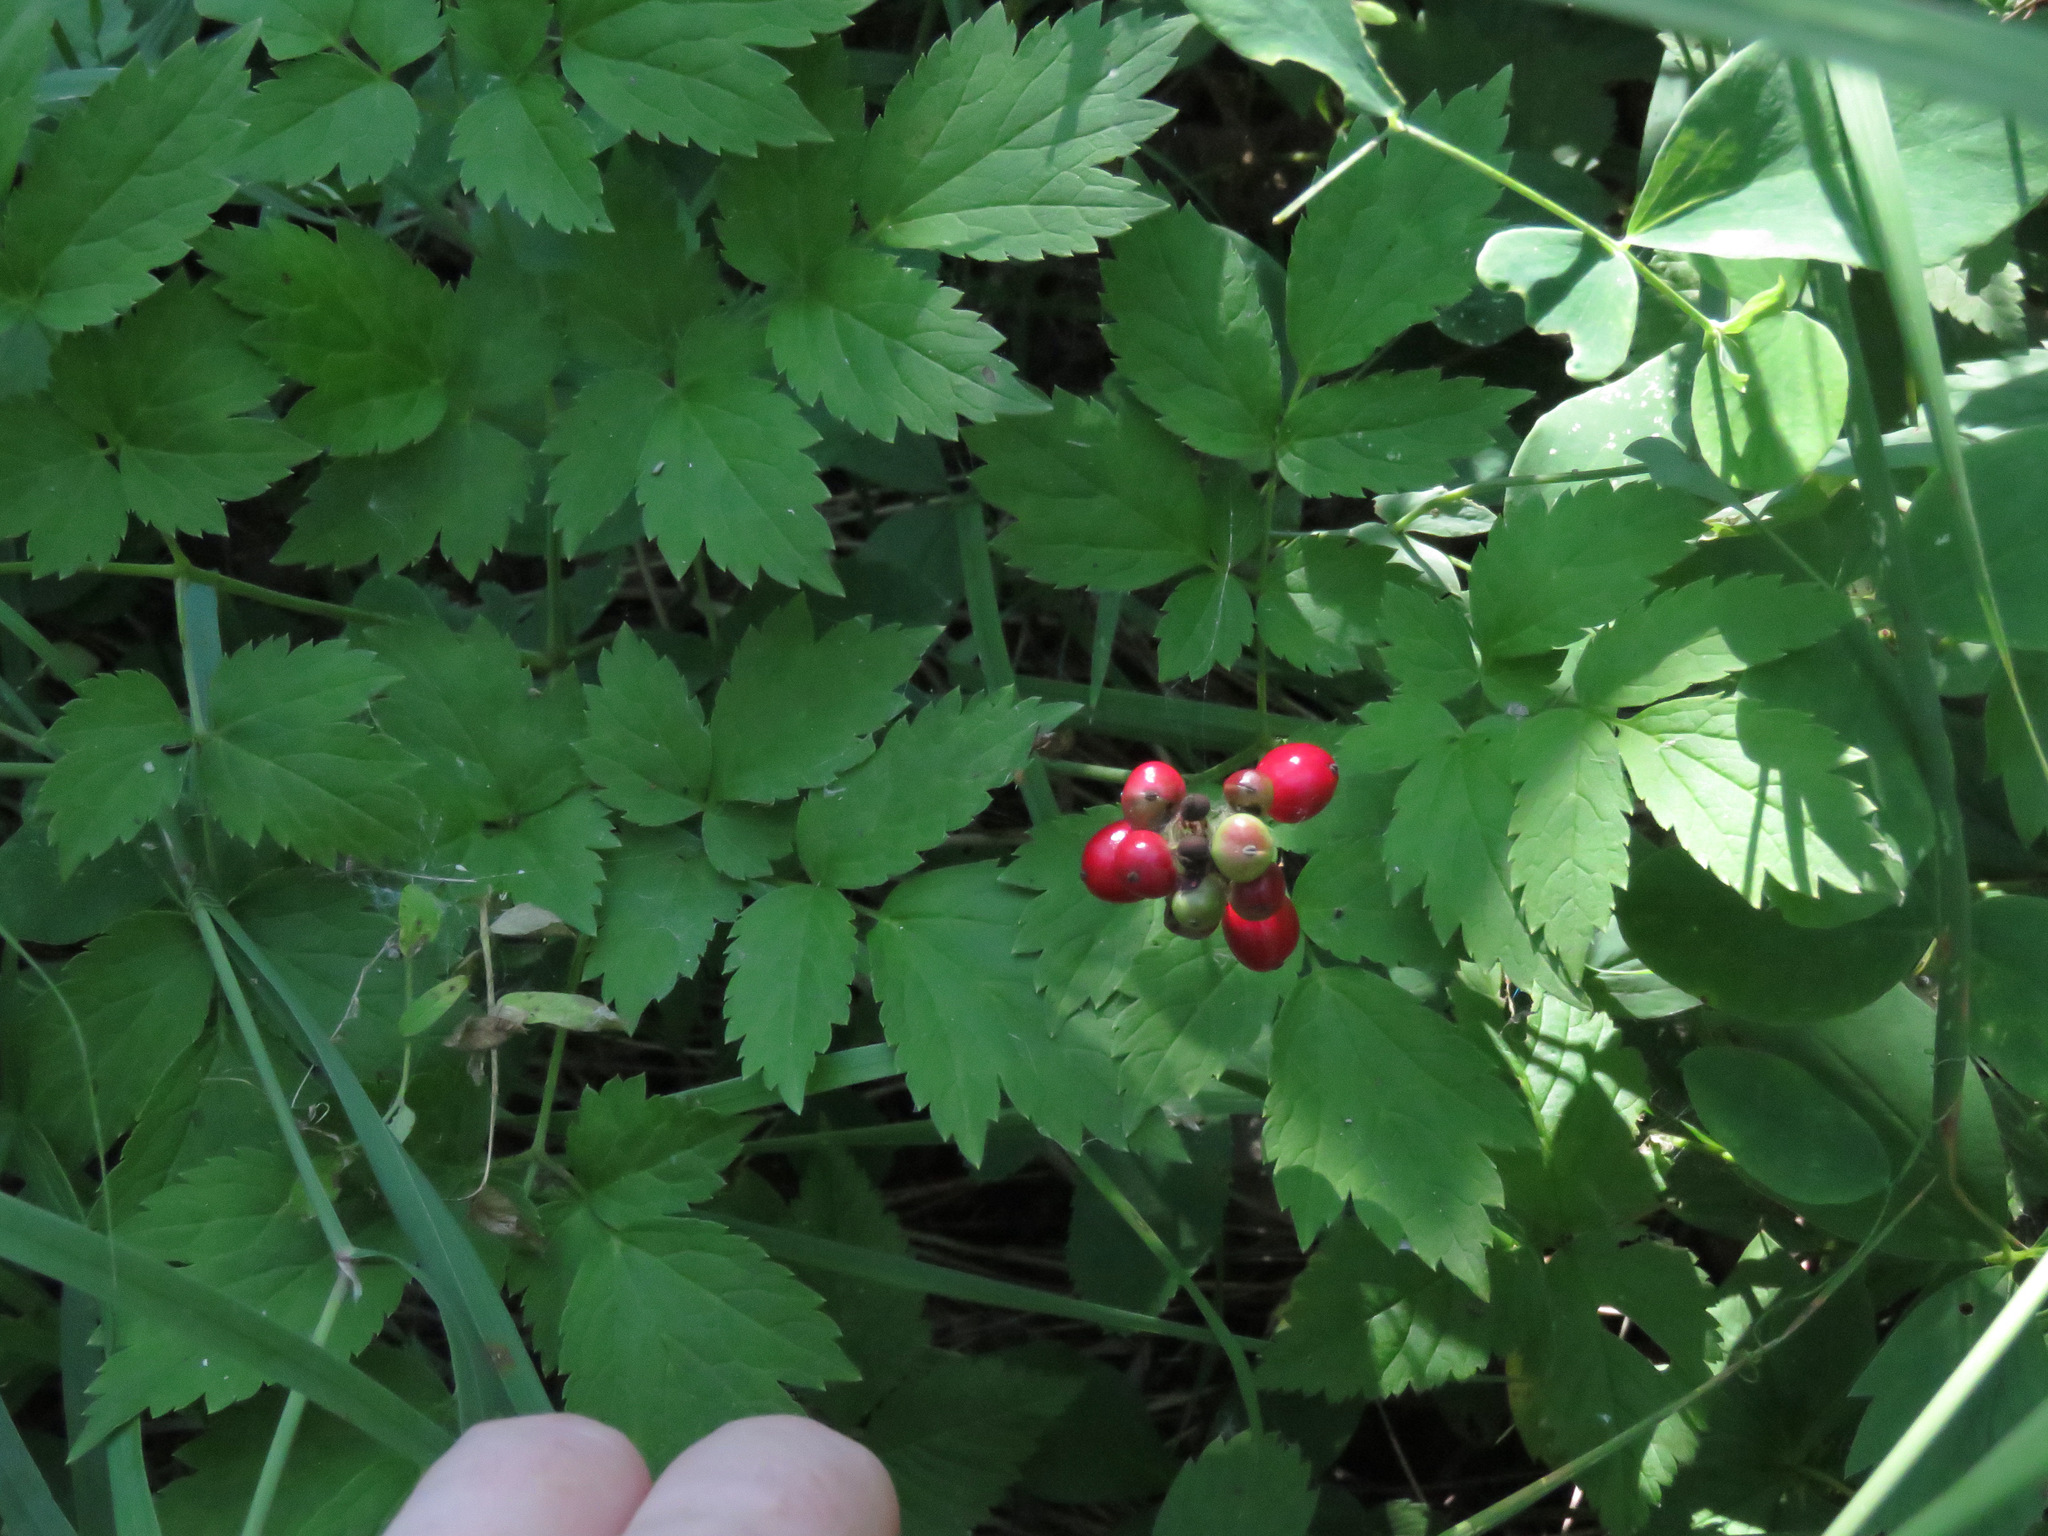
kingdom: Plantae
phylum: Tracheophyta
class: Magnoliopsida
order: Ranunculales
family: Ranunculaceae
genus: Actaea
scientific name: Actaea rubra
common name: Red baneberry
